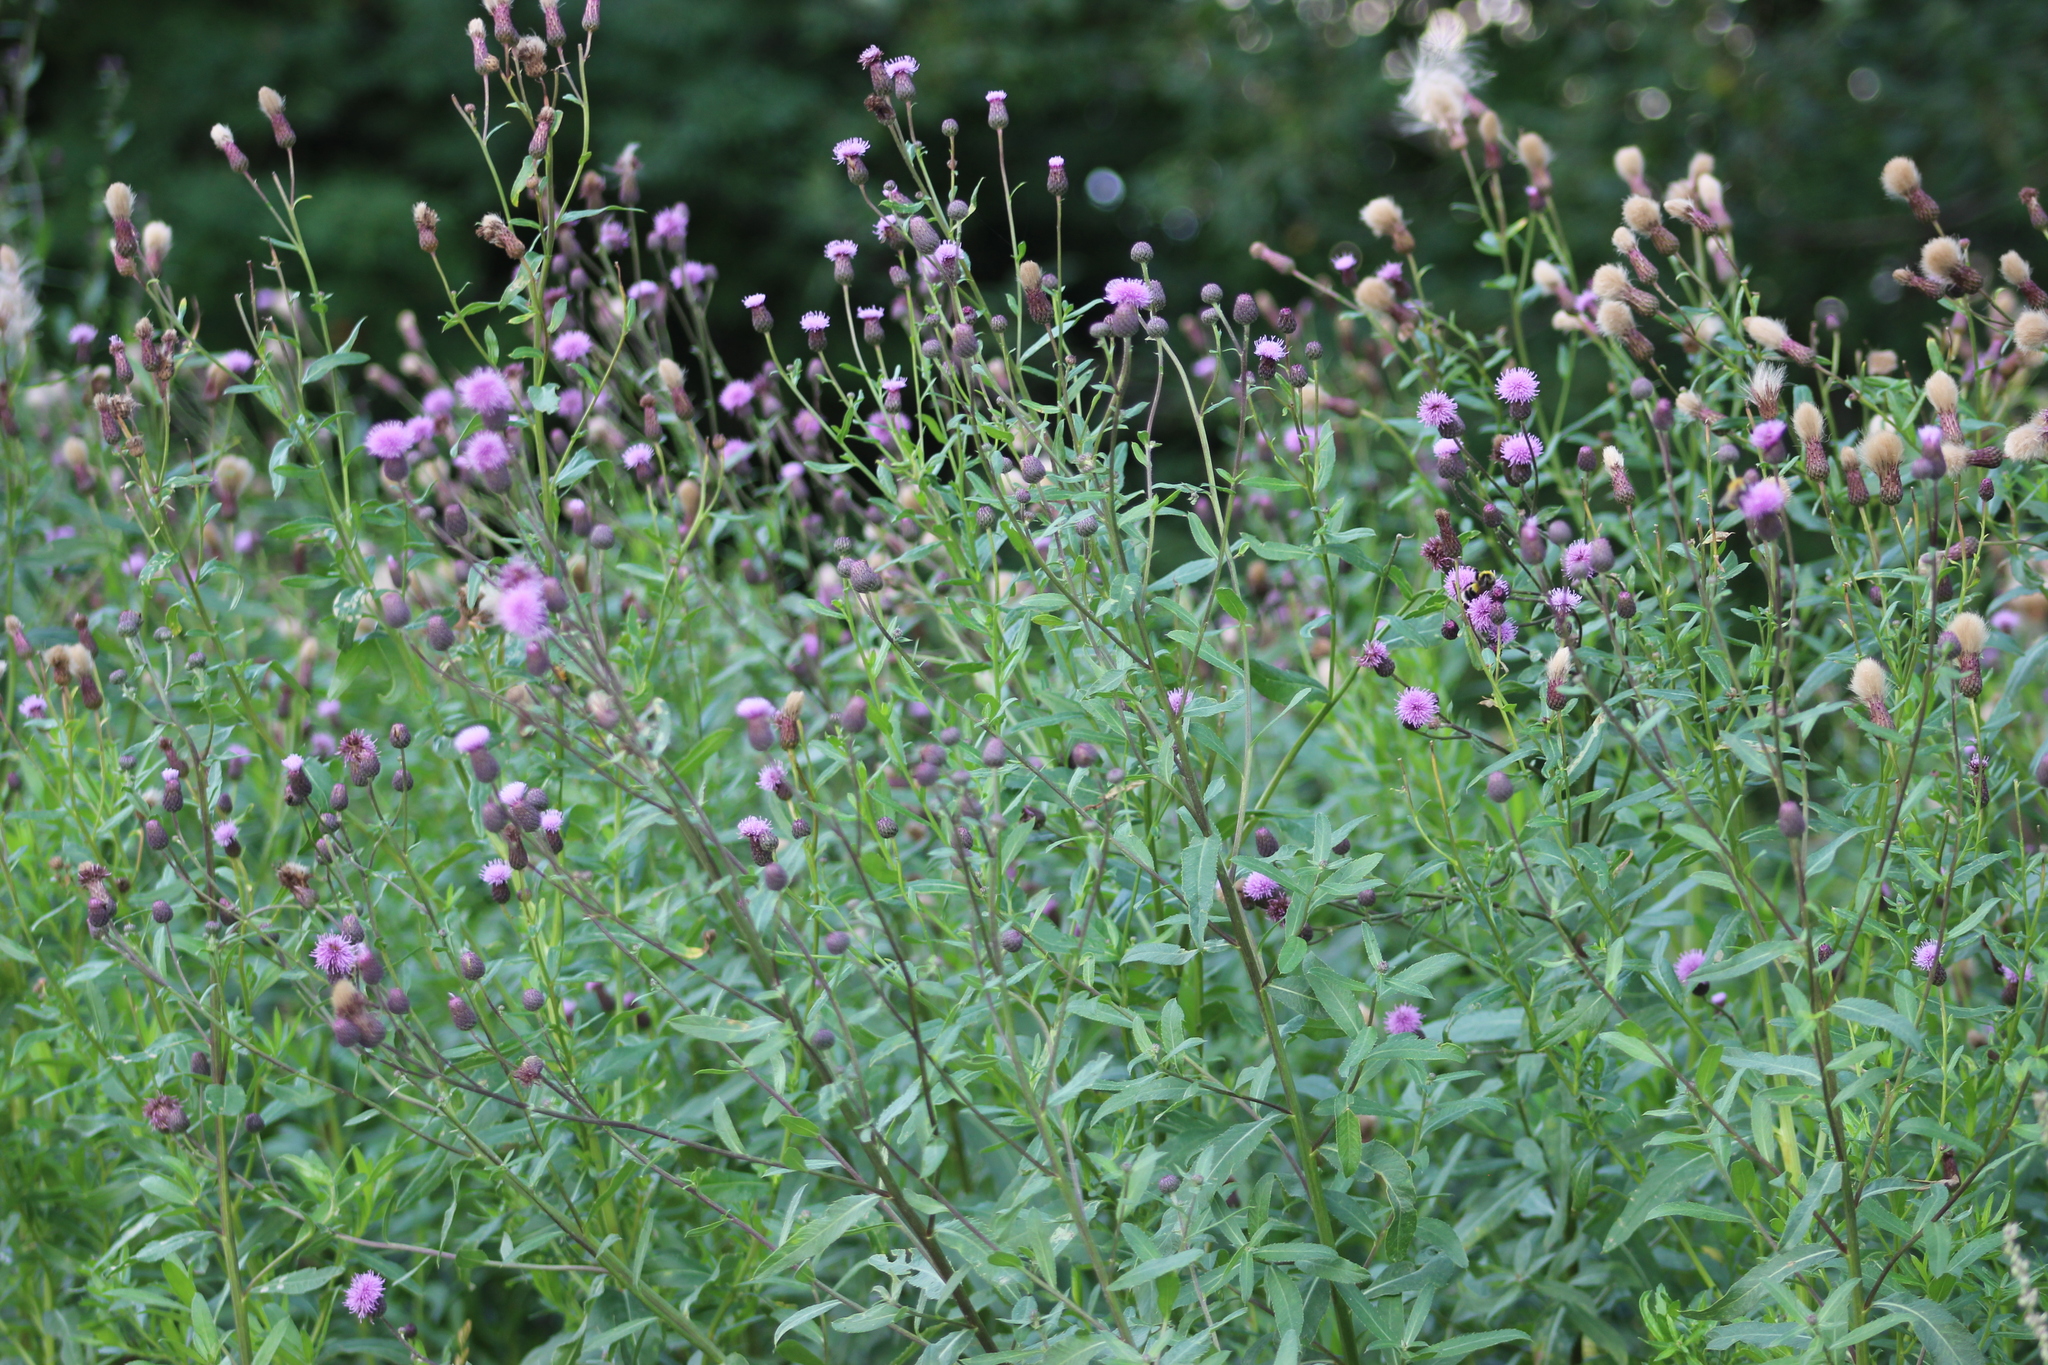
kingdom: Plantae
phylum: Tracheophyta
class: Magnoliopsida
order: Asterales
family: Asteraceae
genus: Cirsium
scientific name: Cirsium arvense
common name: Creeping thistle
